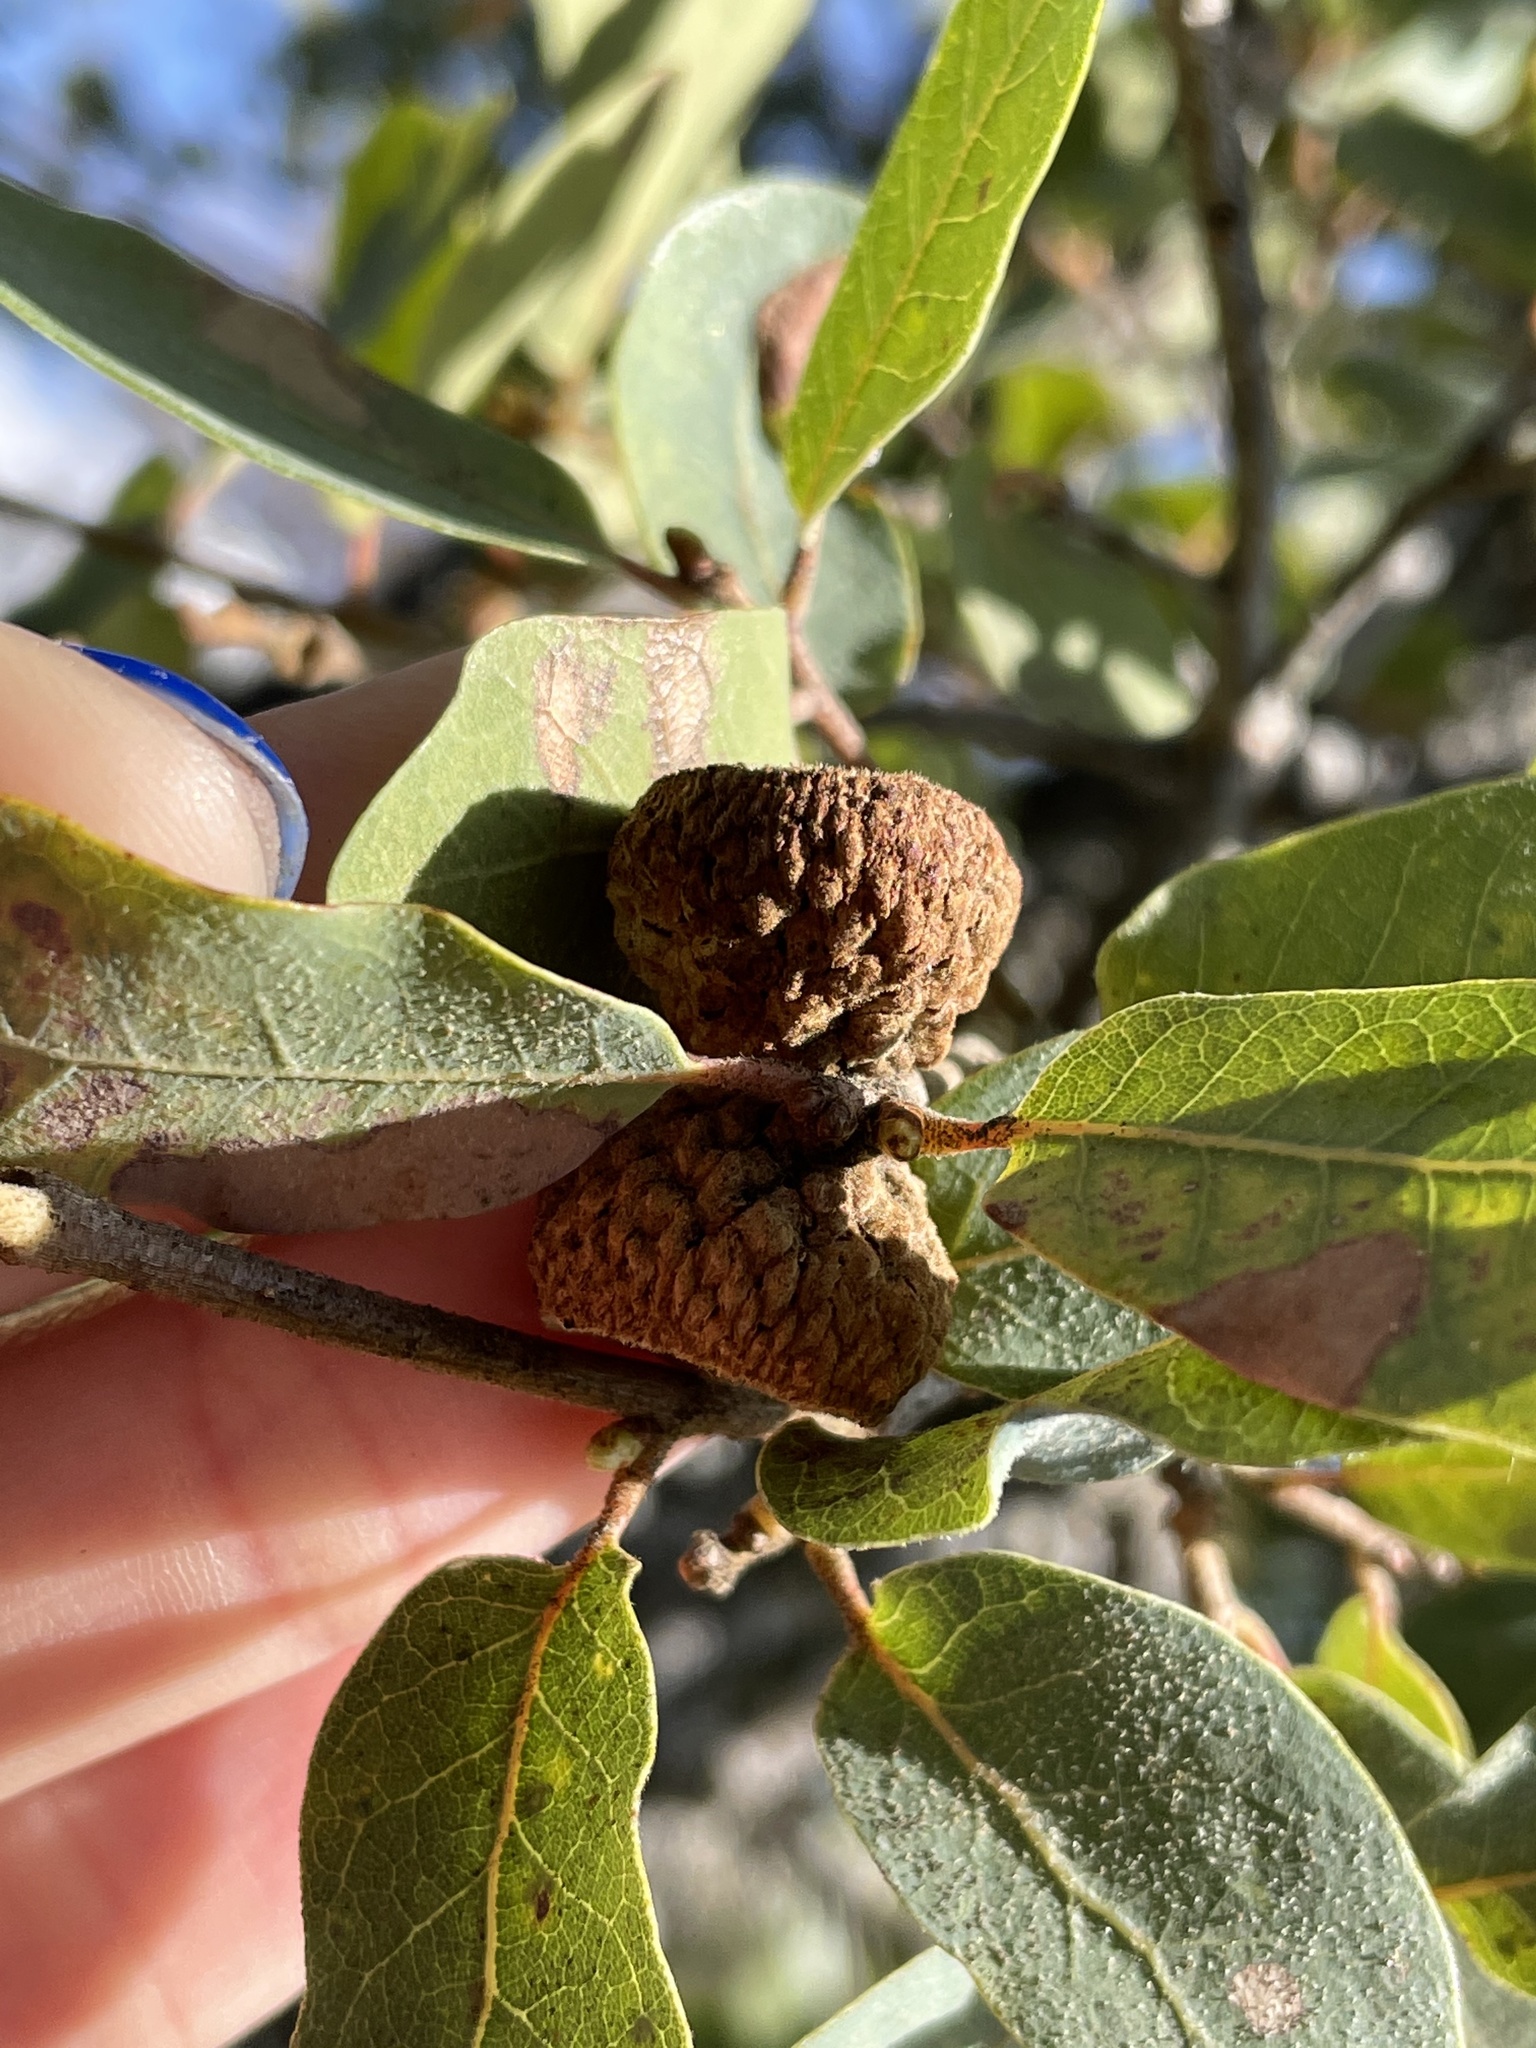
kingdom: Plantae
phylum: Tracheophyta
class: Magnoliopsida
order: Fagales
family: Fagaceae
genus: Quercus
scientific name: Quercus engelmannii
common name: Engelmann oak
